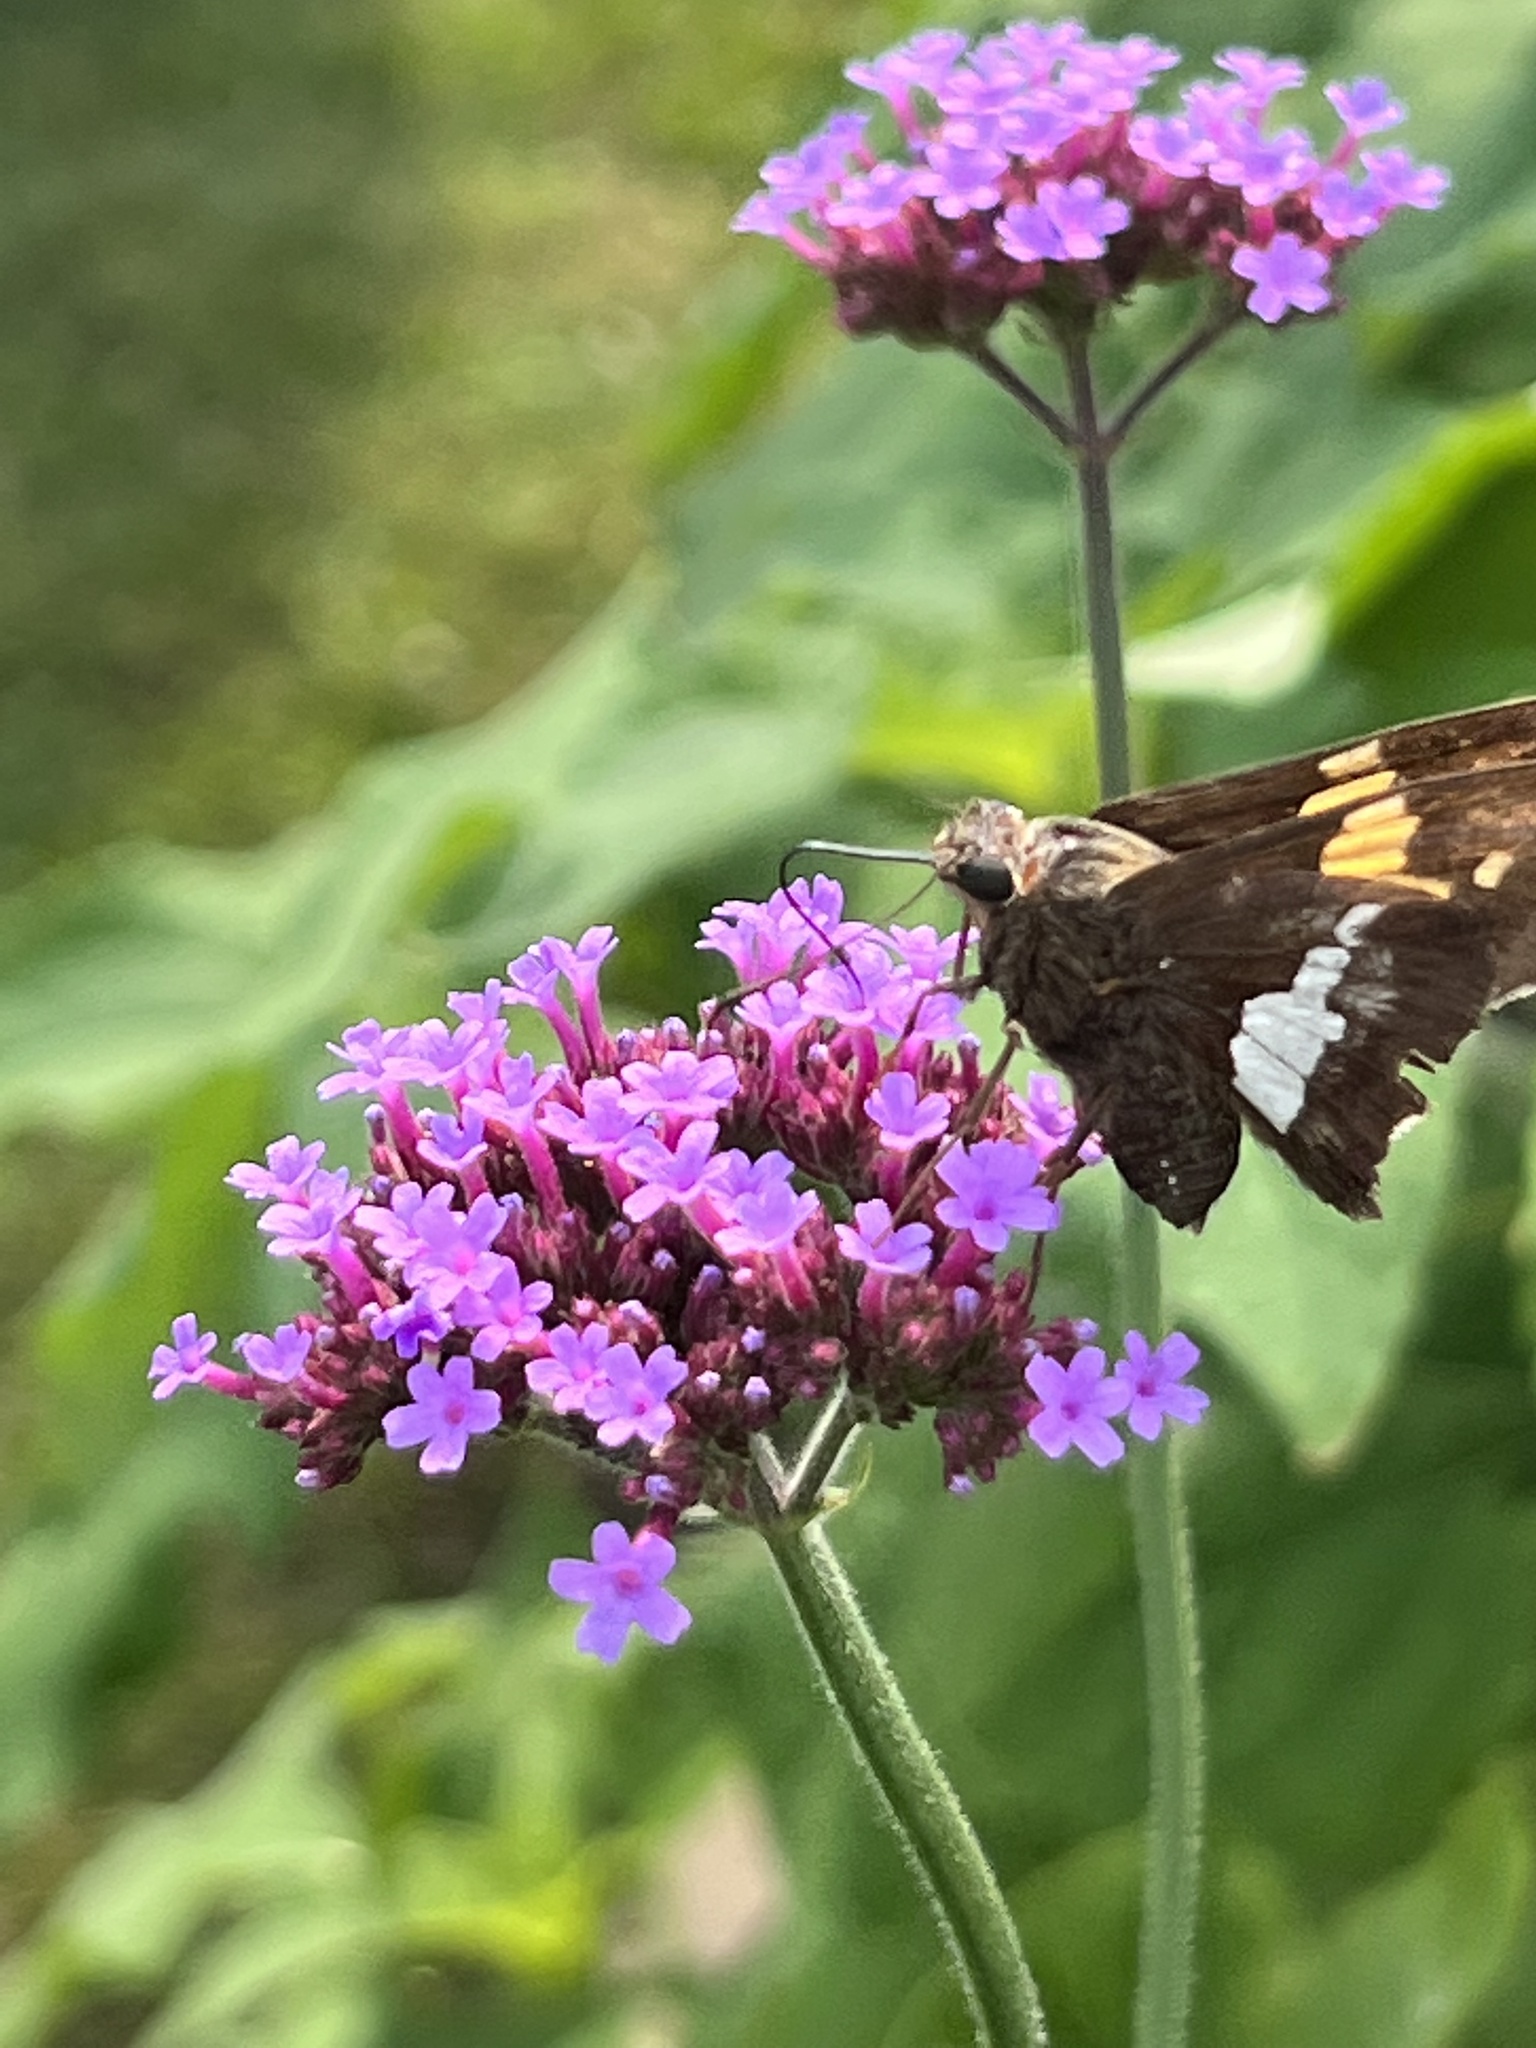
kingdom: Animalia
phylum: Arthropoda
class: Insecta
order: Lepidoptera
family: Hesperiidae
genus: Epargyreus
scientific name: Epargyreus clarus
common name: Silver-spotted skipper
